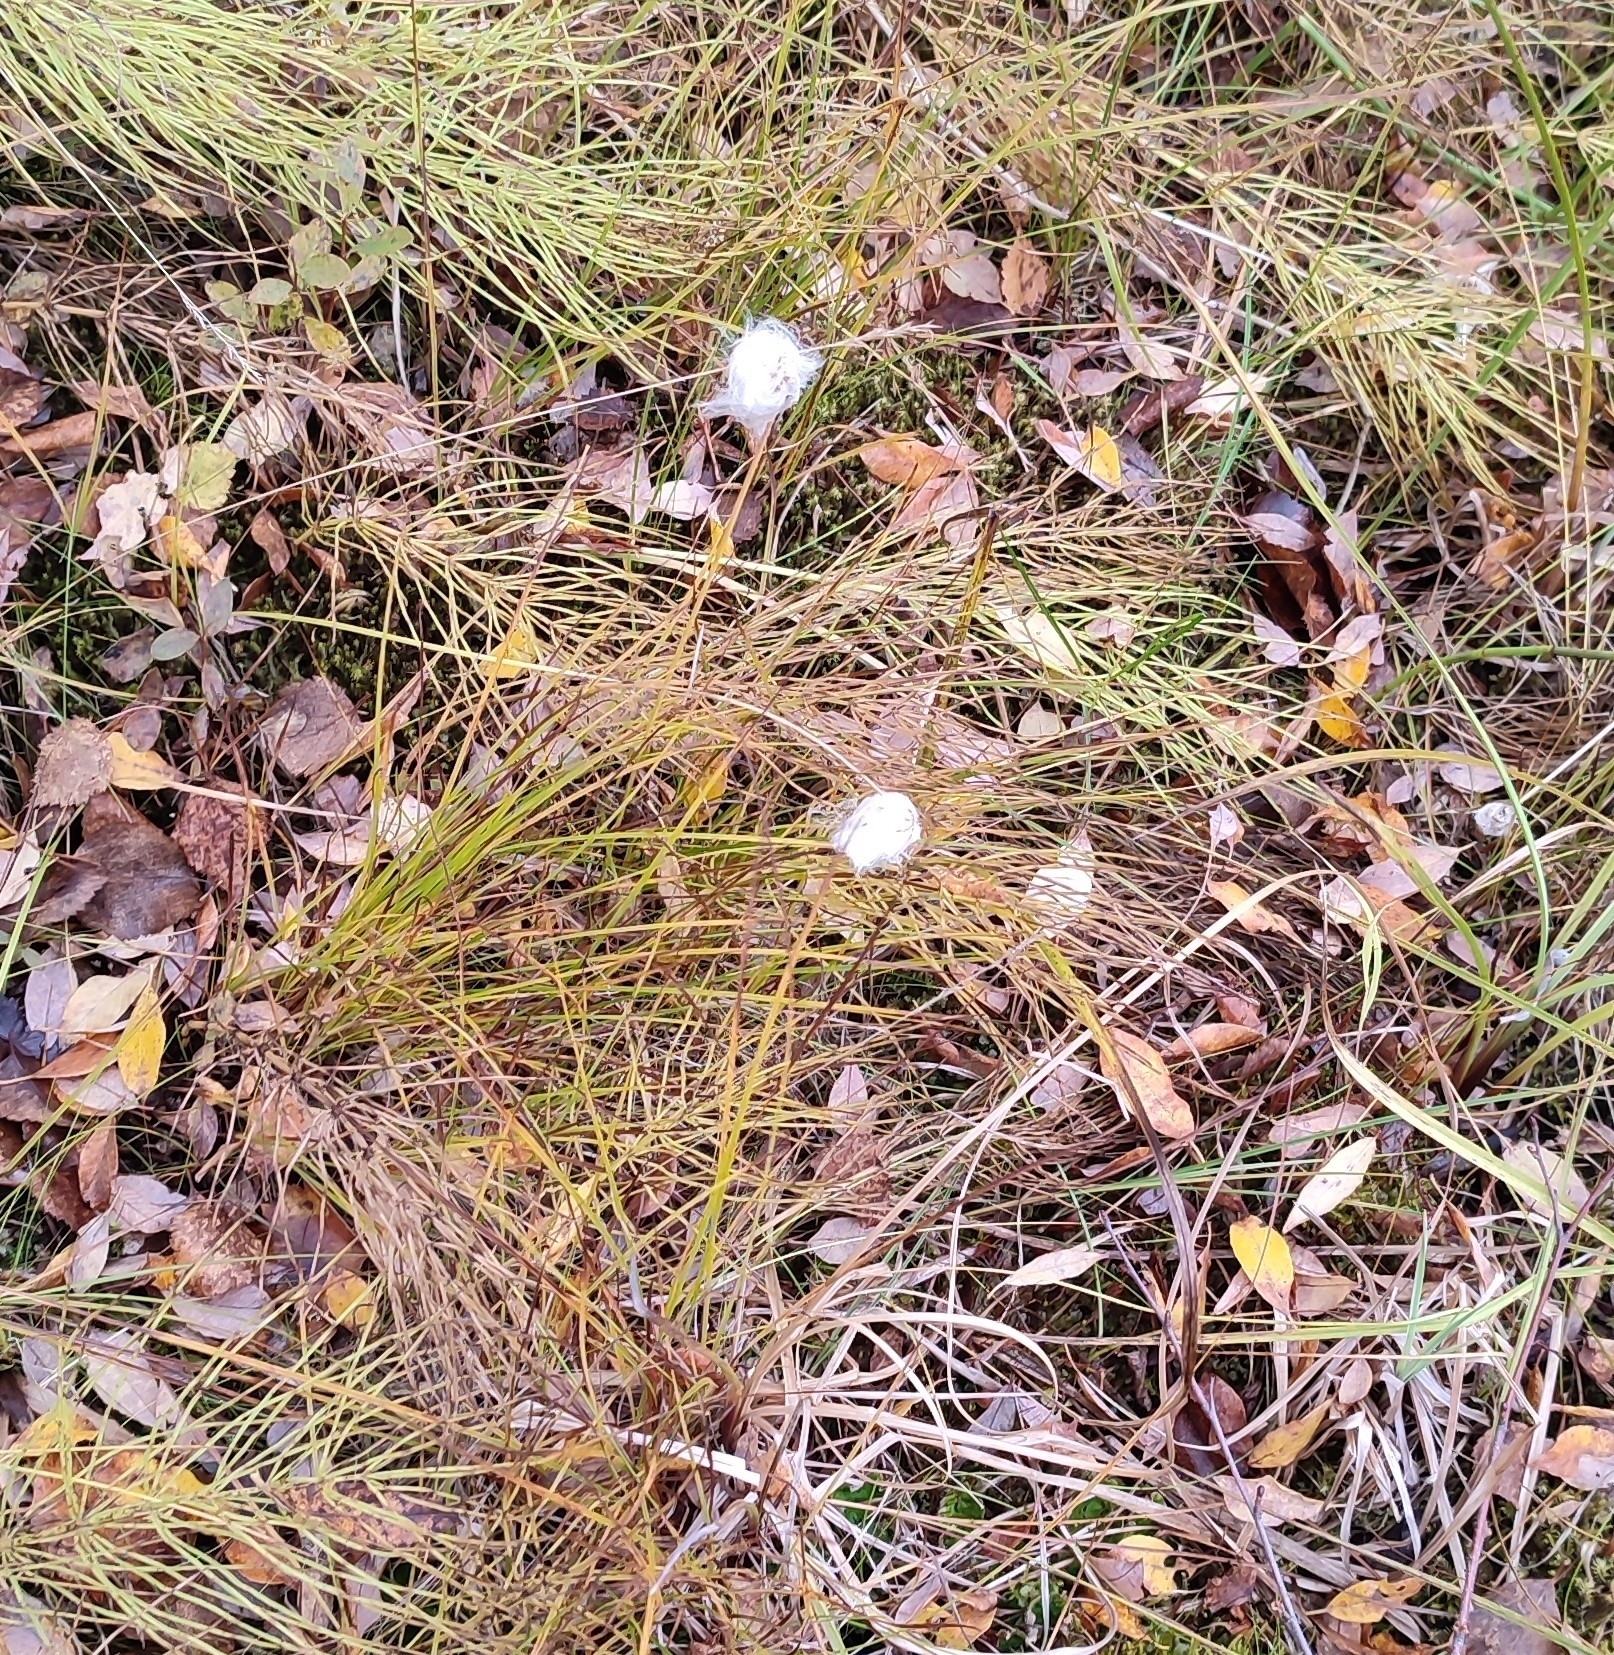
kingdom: Plantae
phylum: Tracheophyta
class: Liliopsida
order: Poales
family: Cyperaceae
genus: Eriophorum
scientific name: Eriophorum scheuchzeri
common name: Scheuchzer's cottongrass
